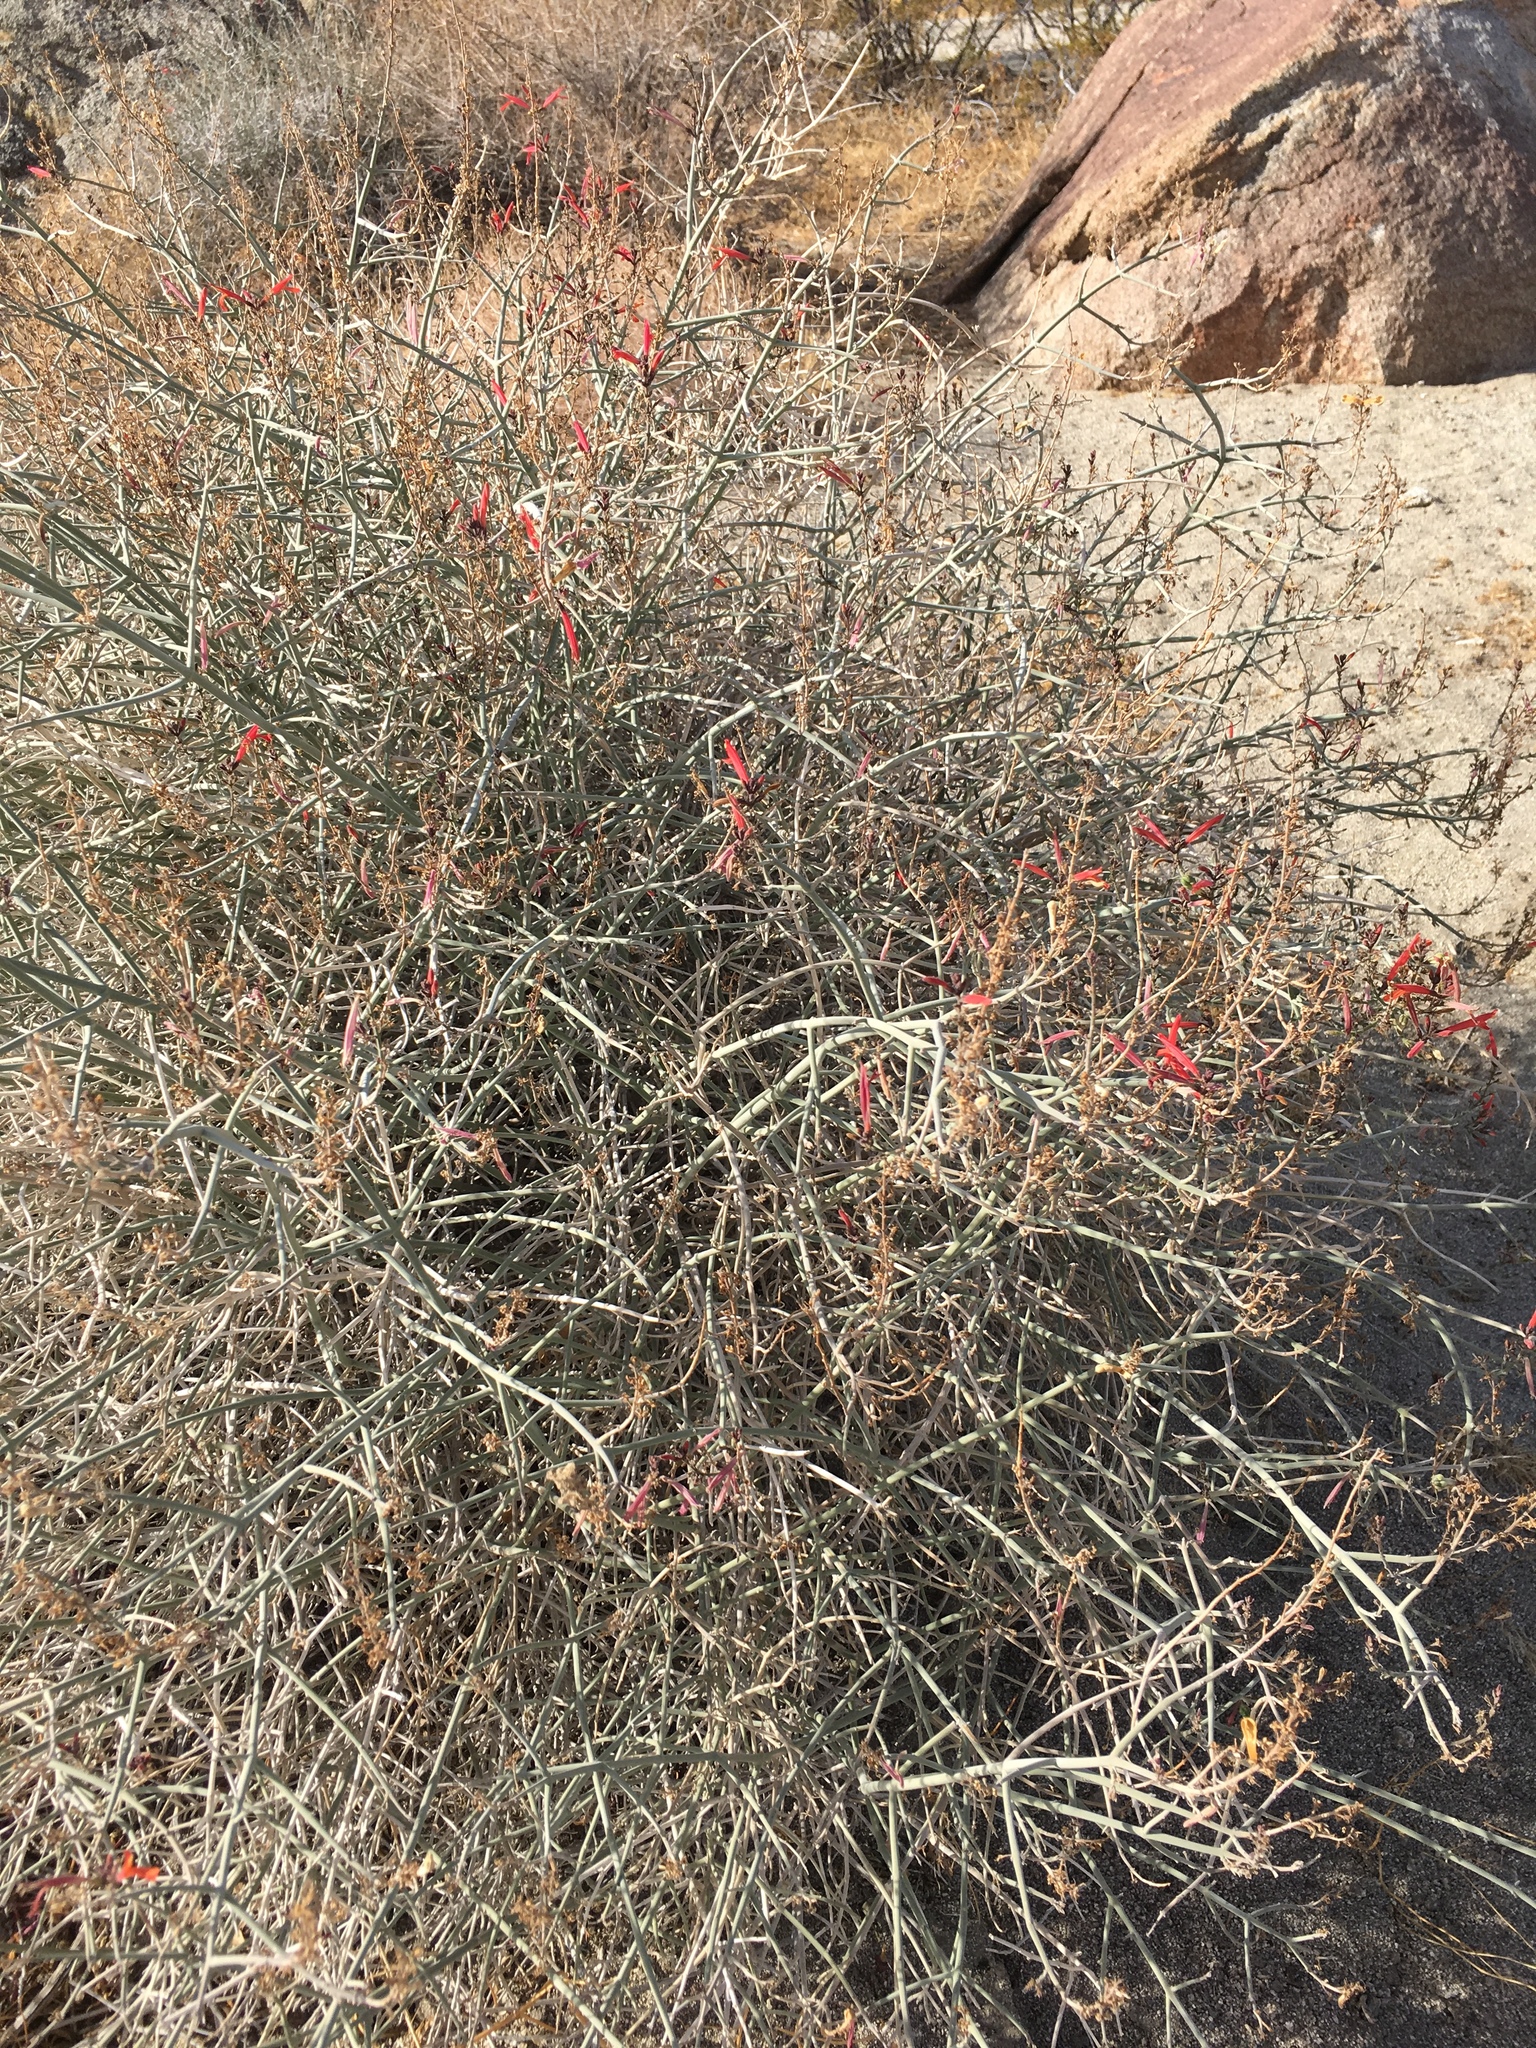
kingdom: Plantae
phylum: Tracheophyta
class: Magnoliopsida
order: Lamiales
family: Acanthaceae
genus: Justicia
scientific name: Justicia californica
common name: Chuparosa-honeysuckle
